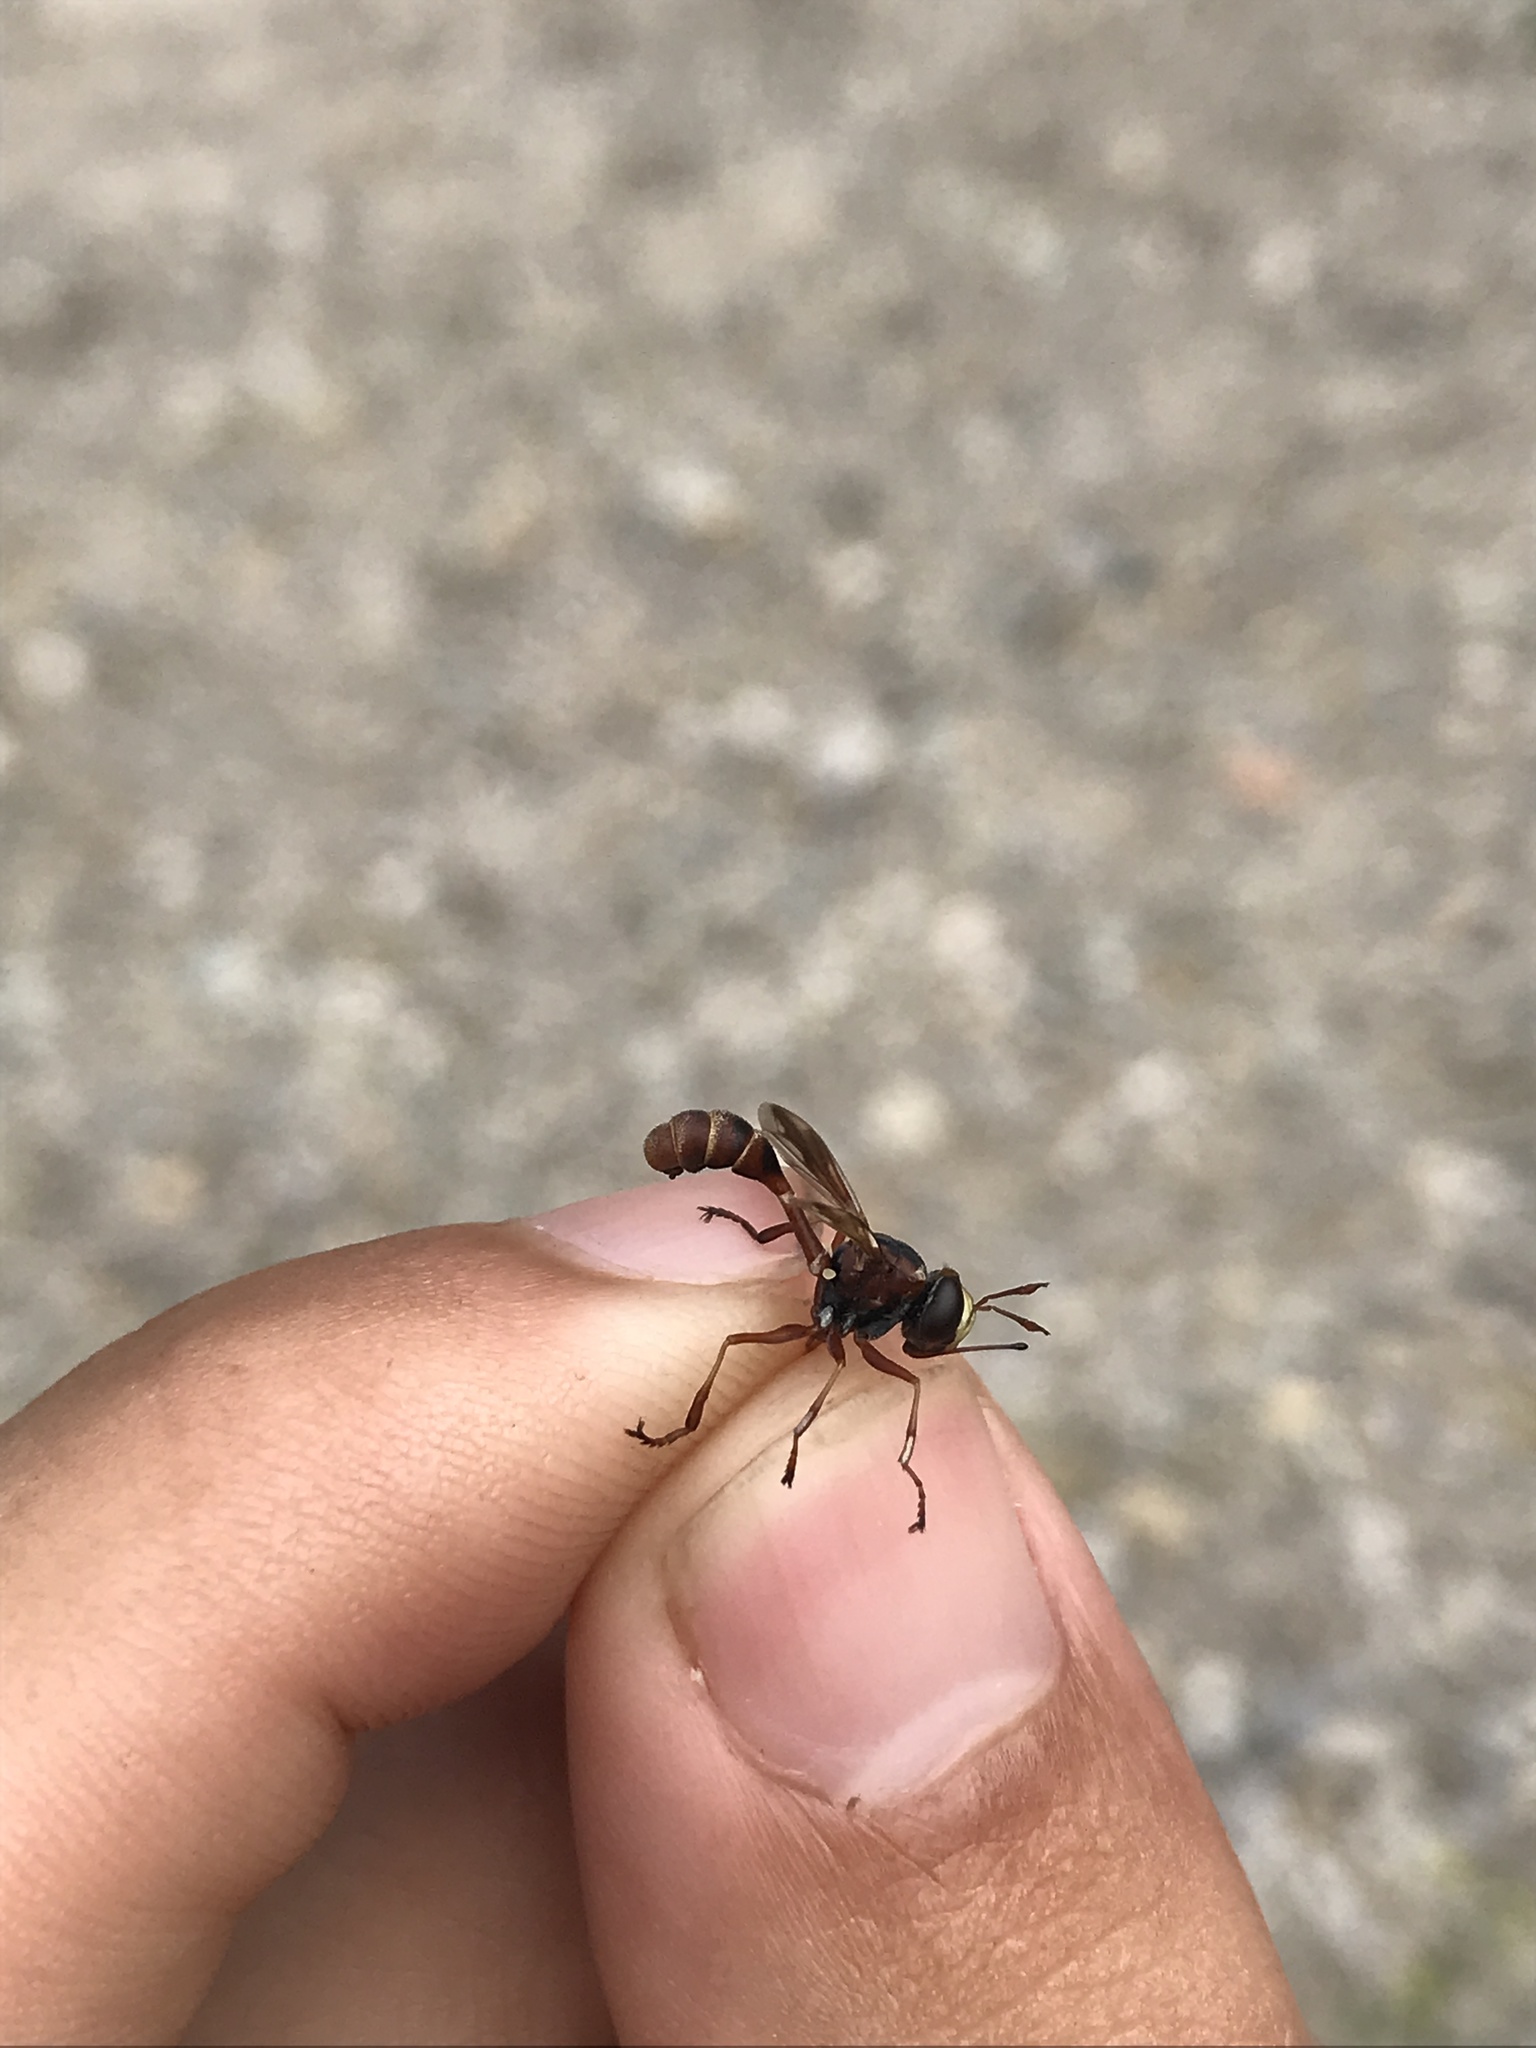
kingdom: Animalia
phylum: Arthropoda
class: Insecta
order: Diptera
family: Conopidae
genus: Physocephala
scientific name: Physocephala marginata
